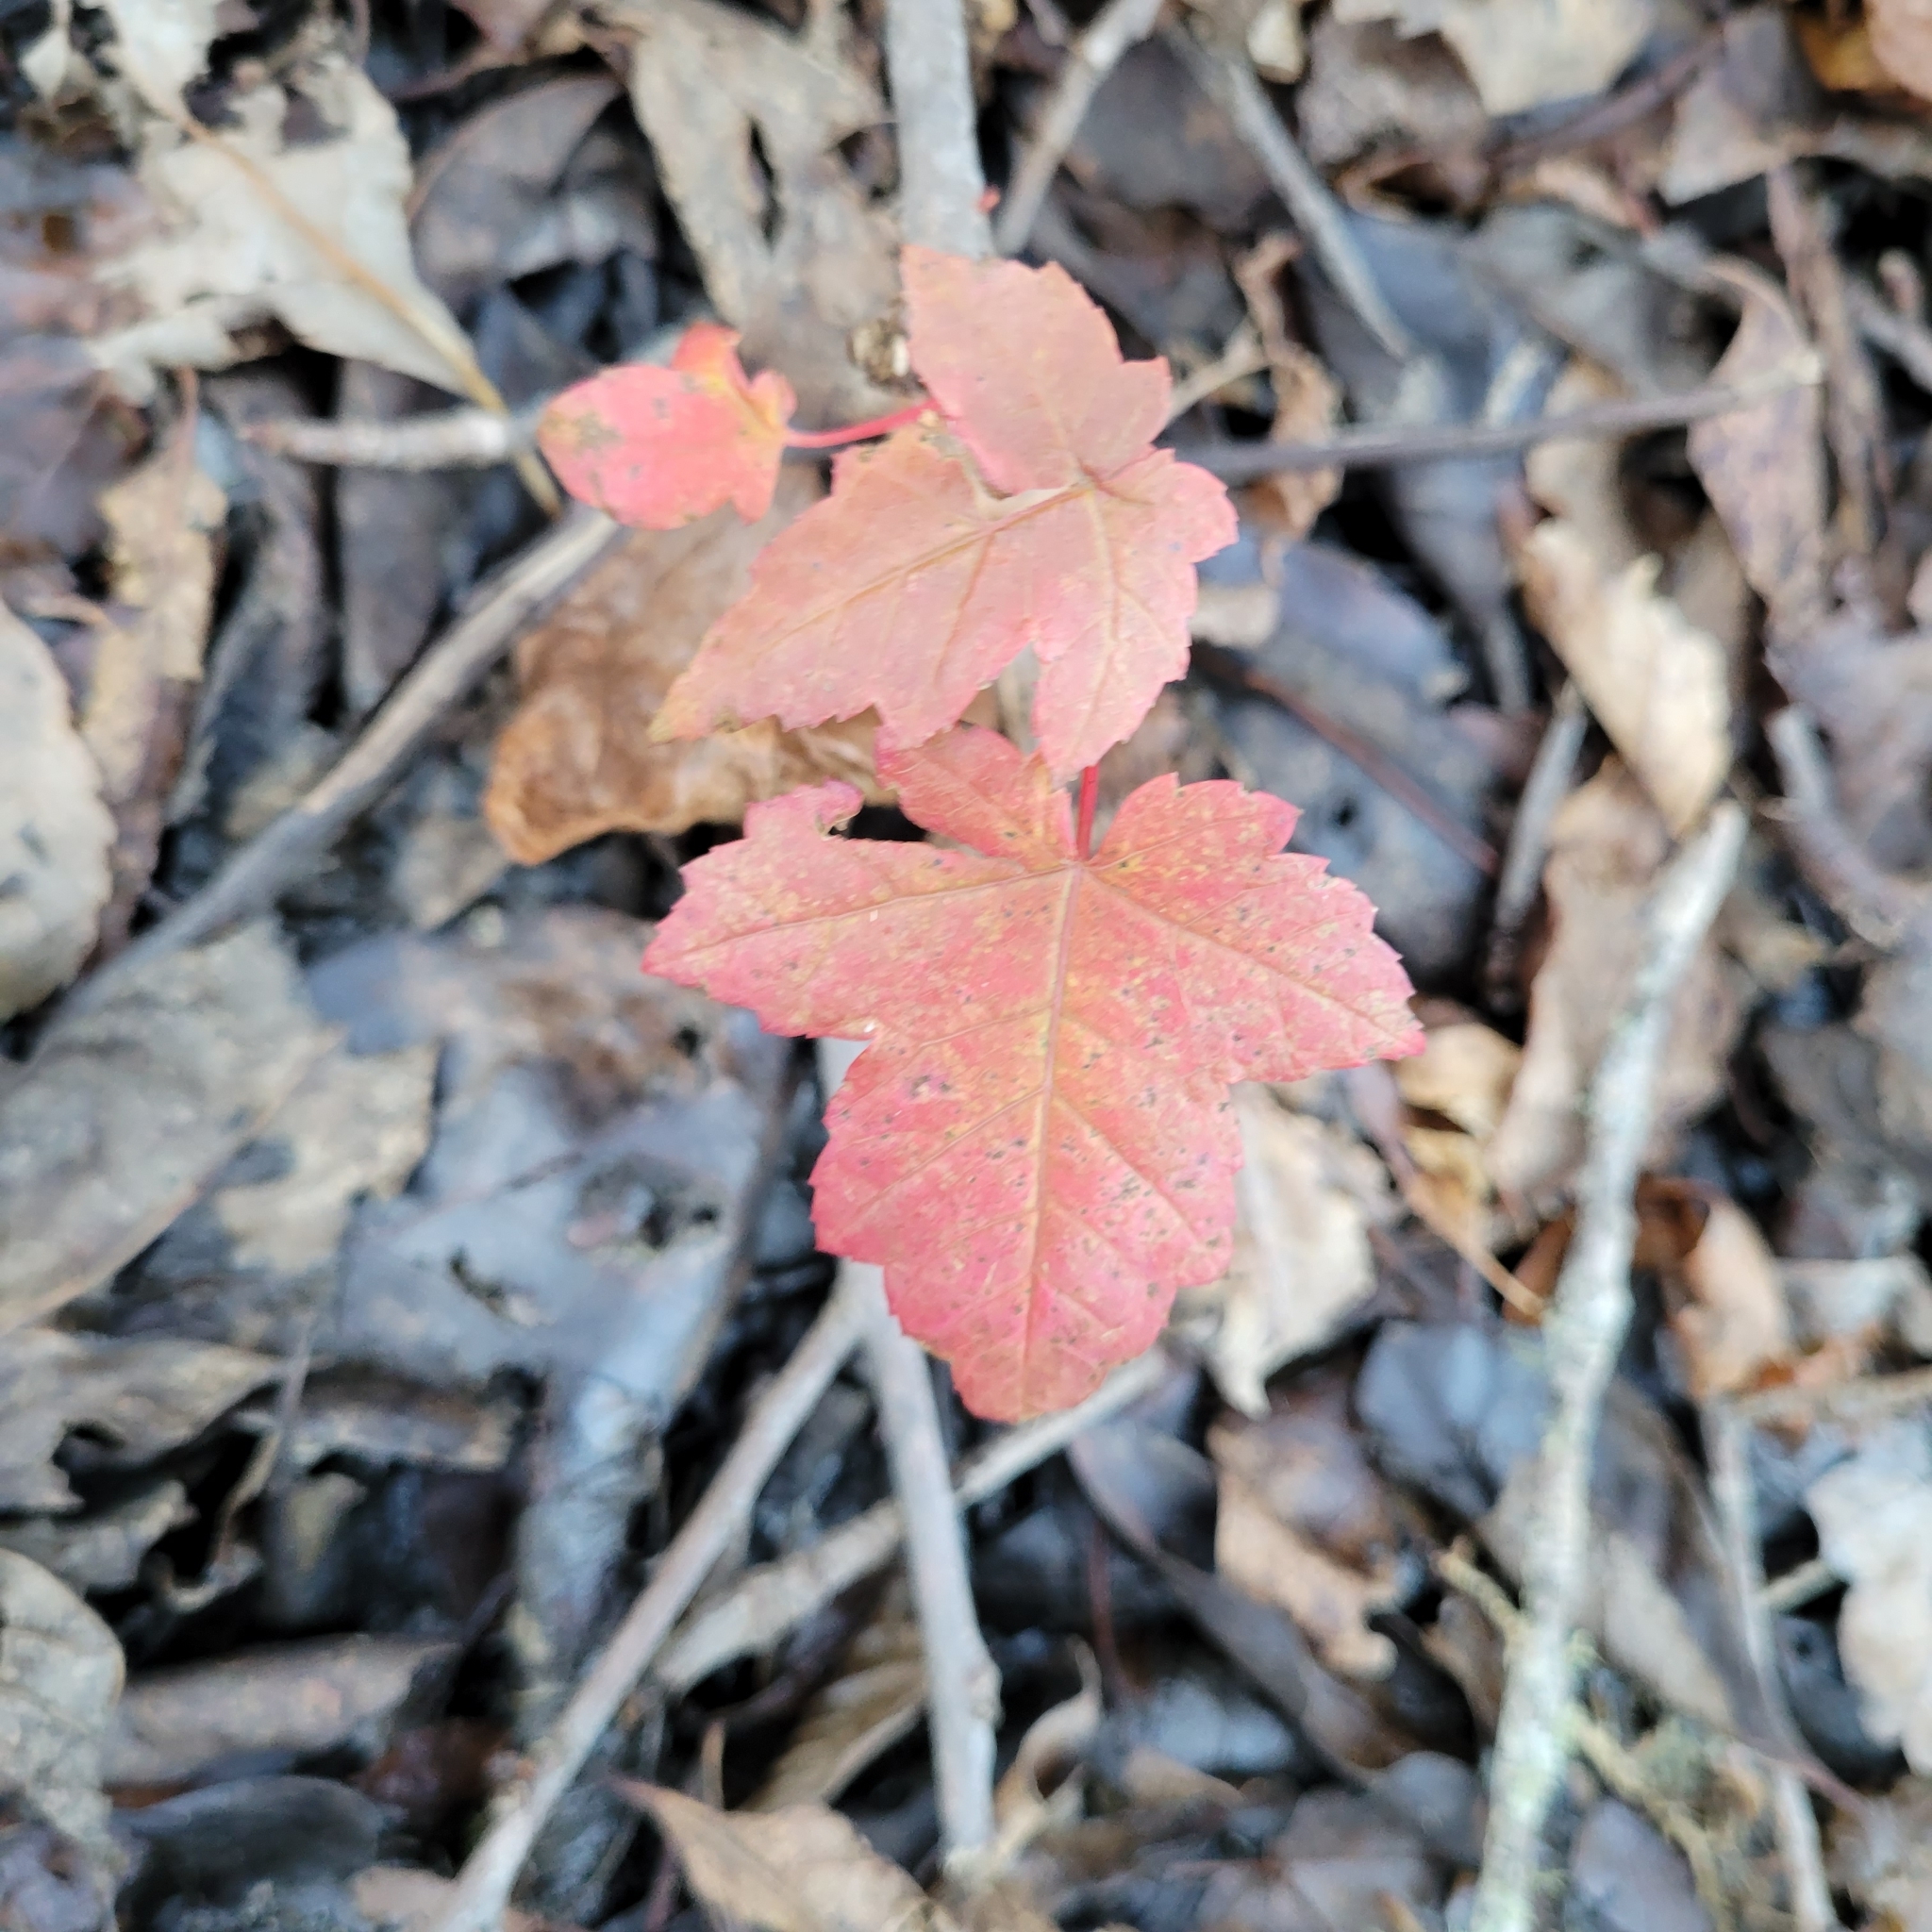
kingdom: Plantae
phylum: Tracheophyta
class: Magnoliopsida
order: Sapindales
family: Sapindaceae
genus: Acer
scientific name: Acer rubrum
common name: Red maple
